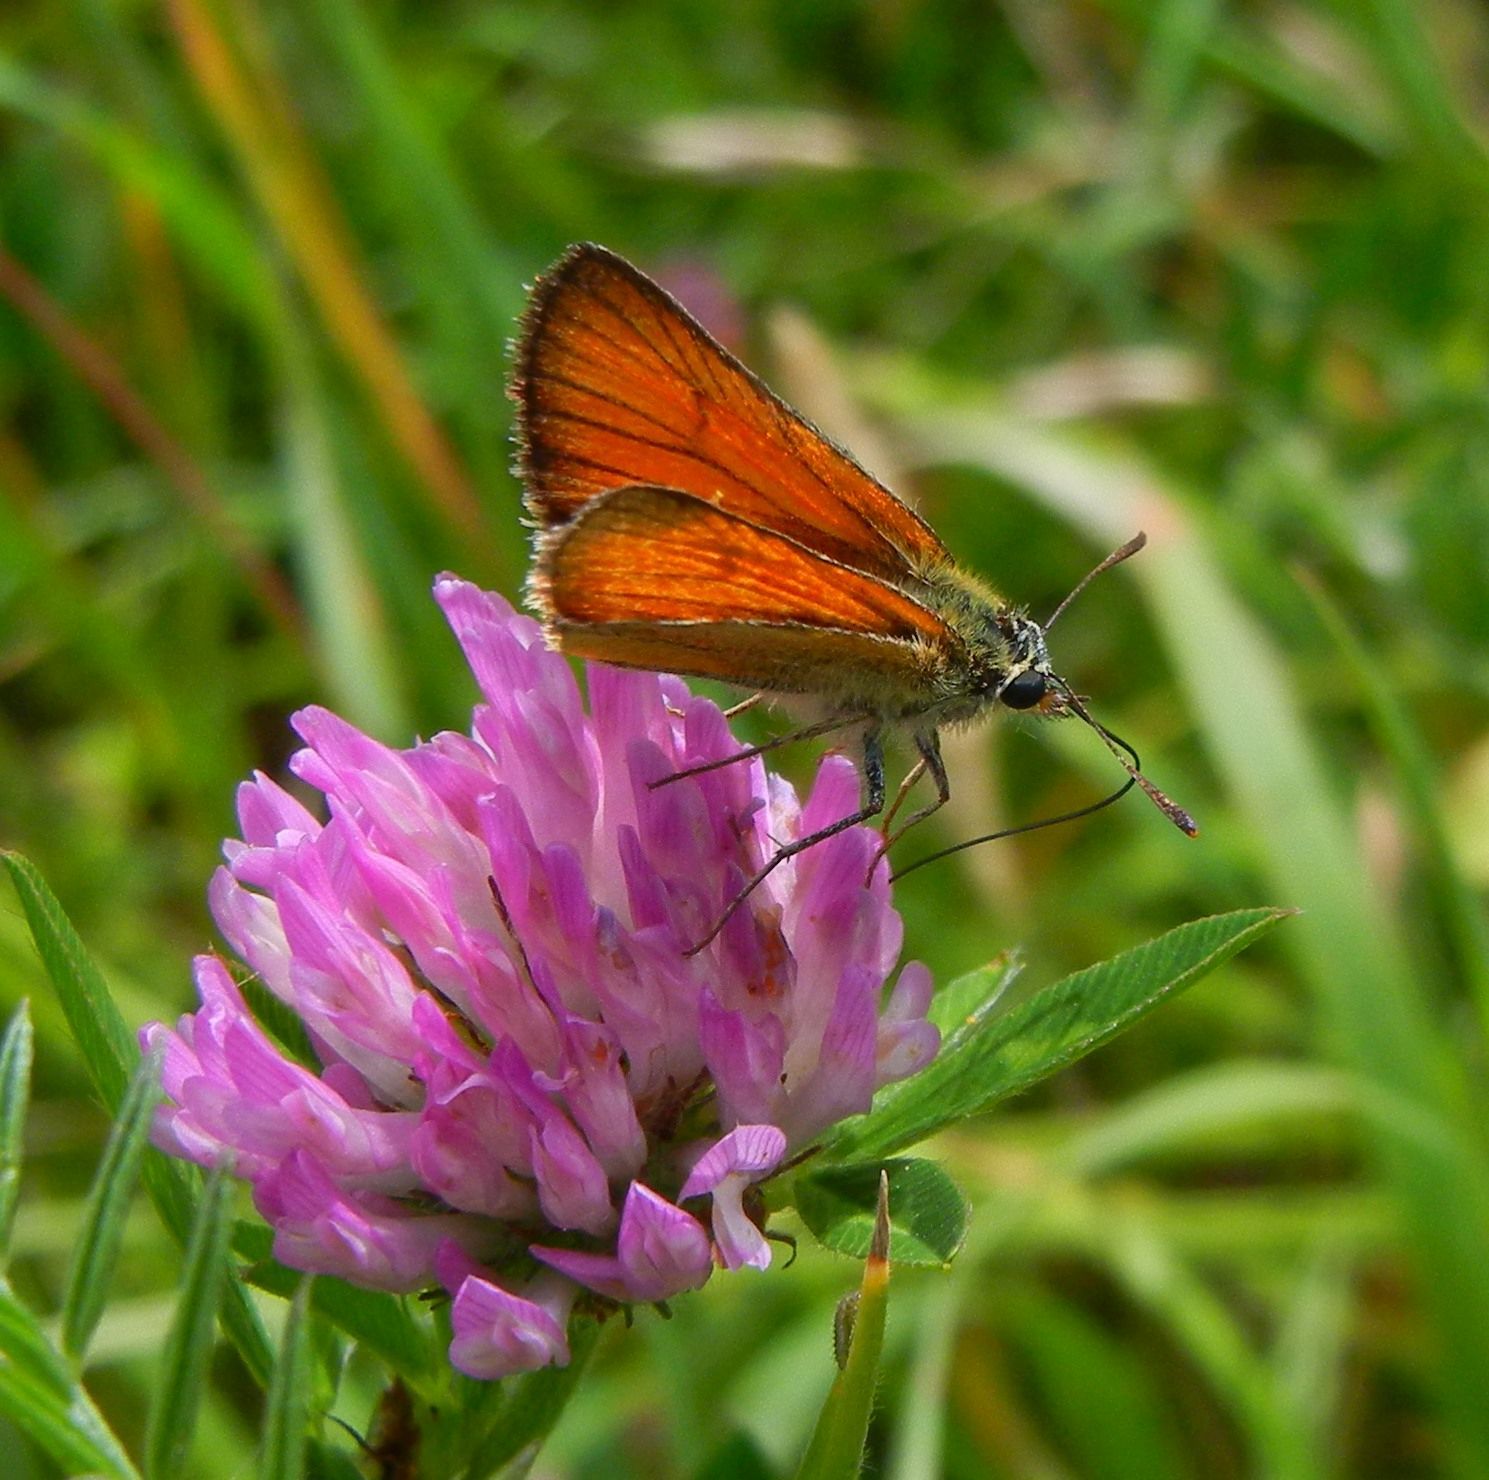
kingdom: Animalia
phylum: Arthropoda
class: Insecta
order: Lepidoptera
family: Hesperiidae
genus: Thymelicus
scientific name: Thymelicus sylvestris
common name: Small skipper
